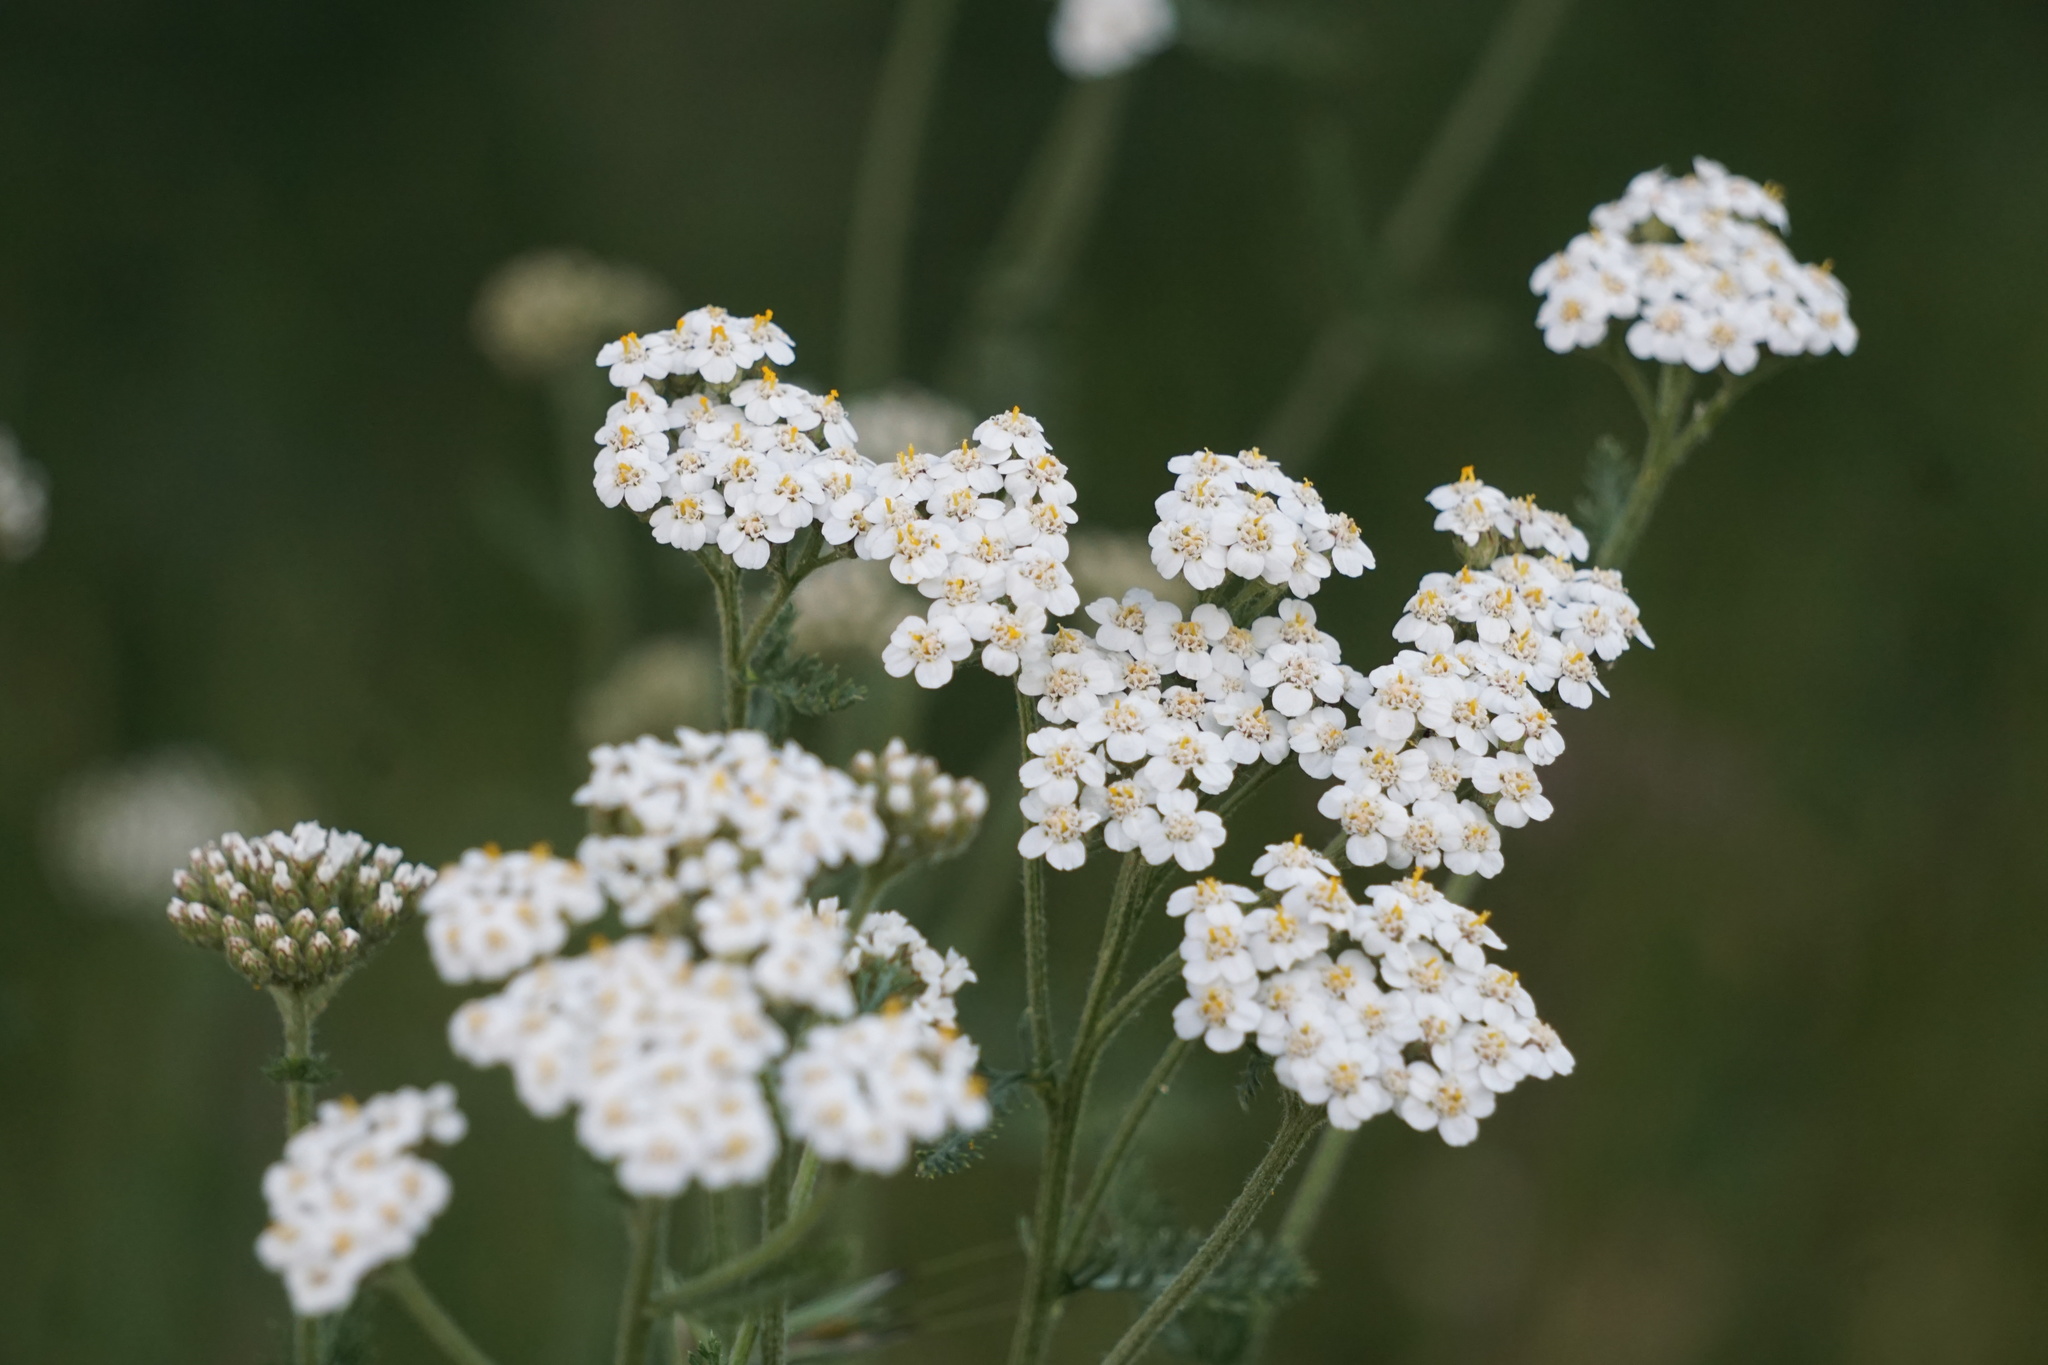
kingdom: Plantae
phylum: Tracheophyta
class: Magnoliopsida
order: Asterales
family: Asteraceae
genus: Achillea
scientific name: Achillea millefolium
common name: Yarrow
